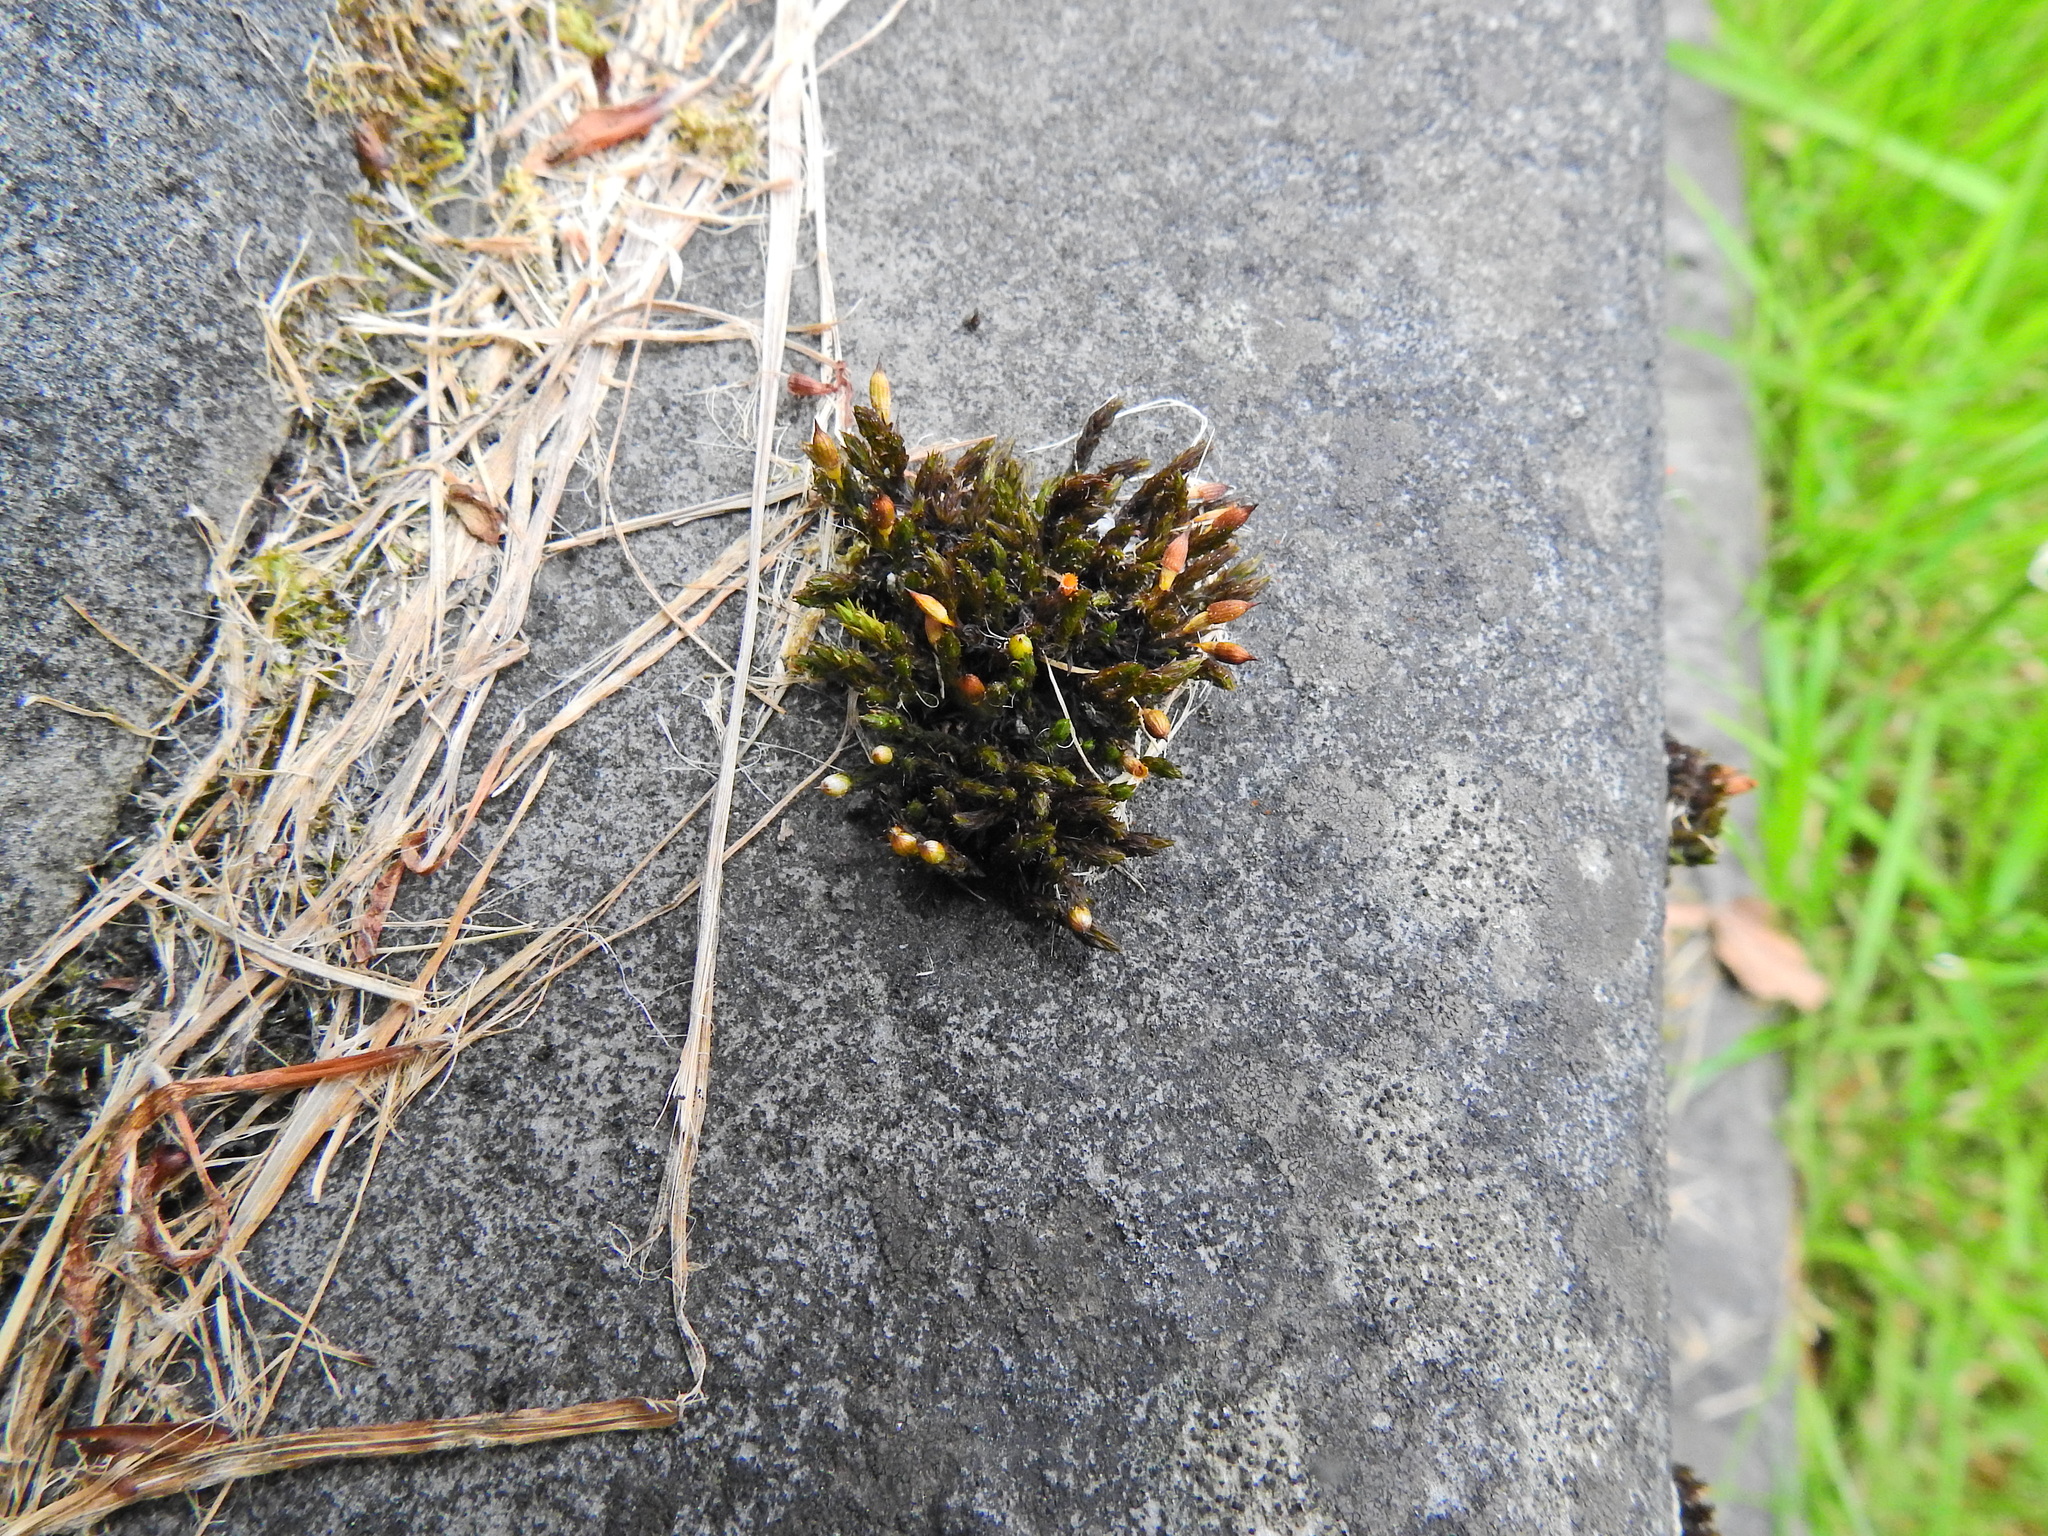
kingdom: Plantae
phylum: Bryophyta
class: Bryopsida
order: Orthotrichales
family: Orthotrichaceae
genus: Orthotrichum
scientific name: Orthotrichum anomalum
